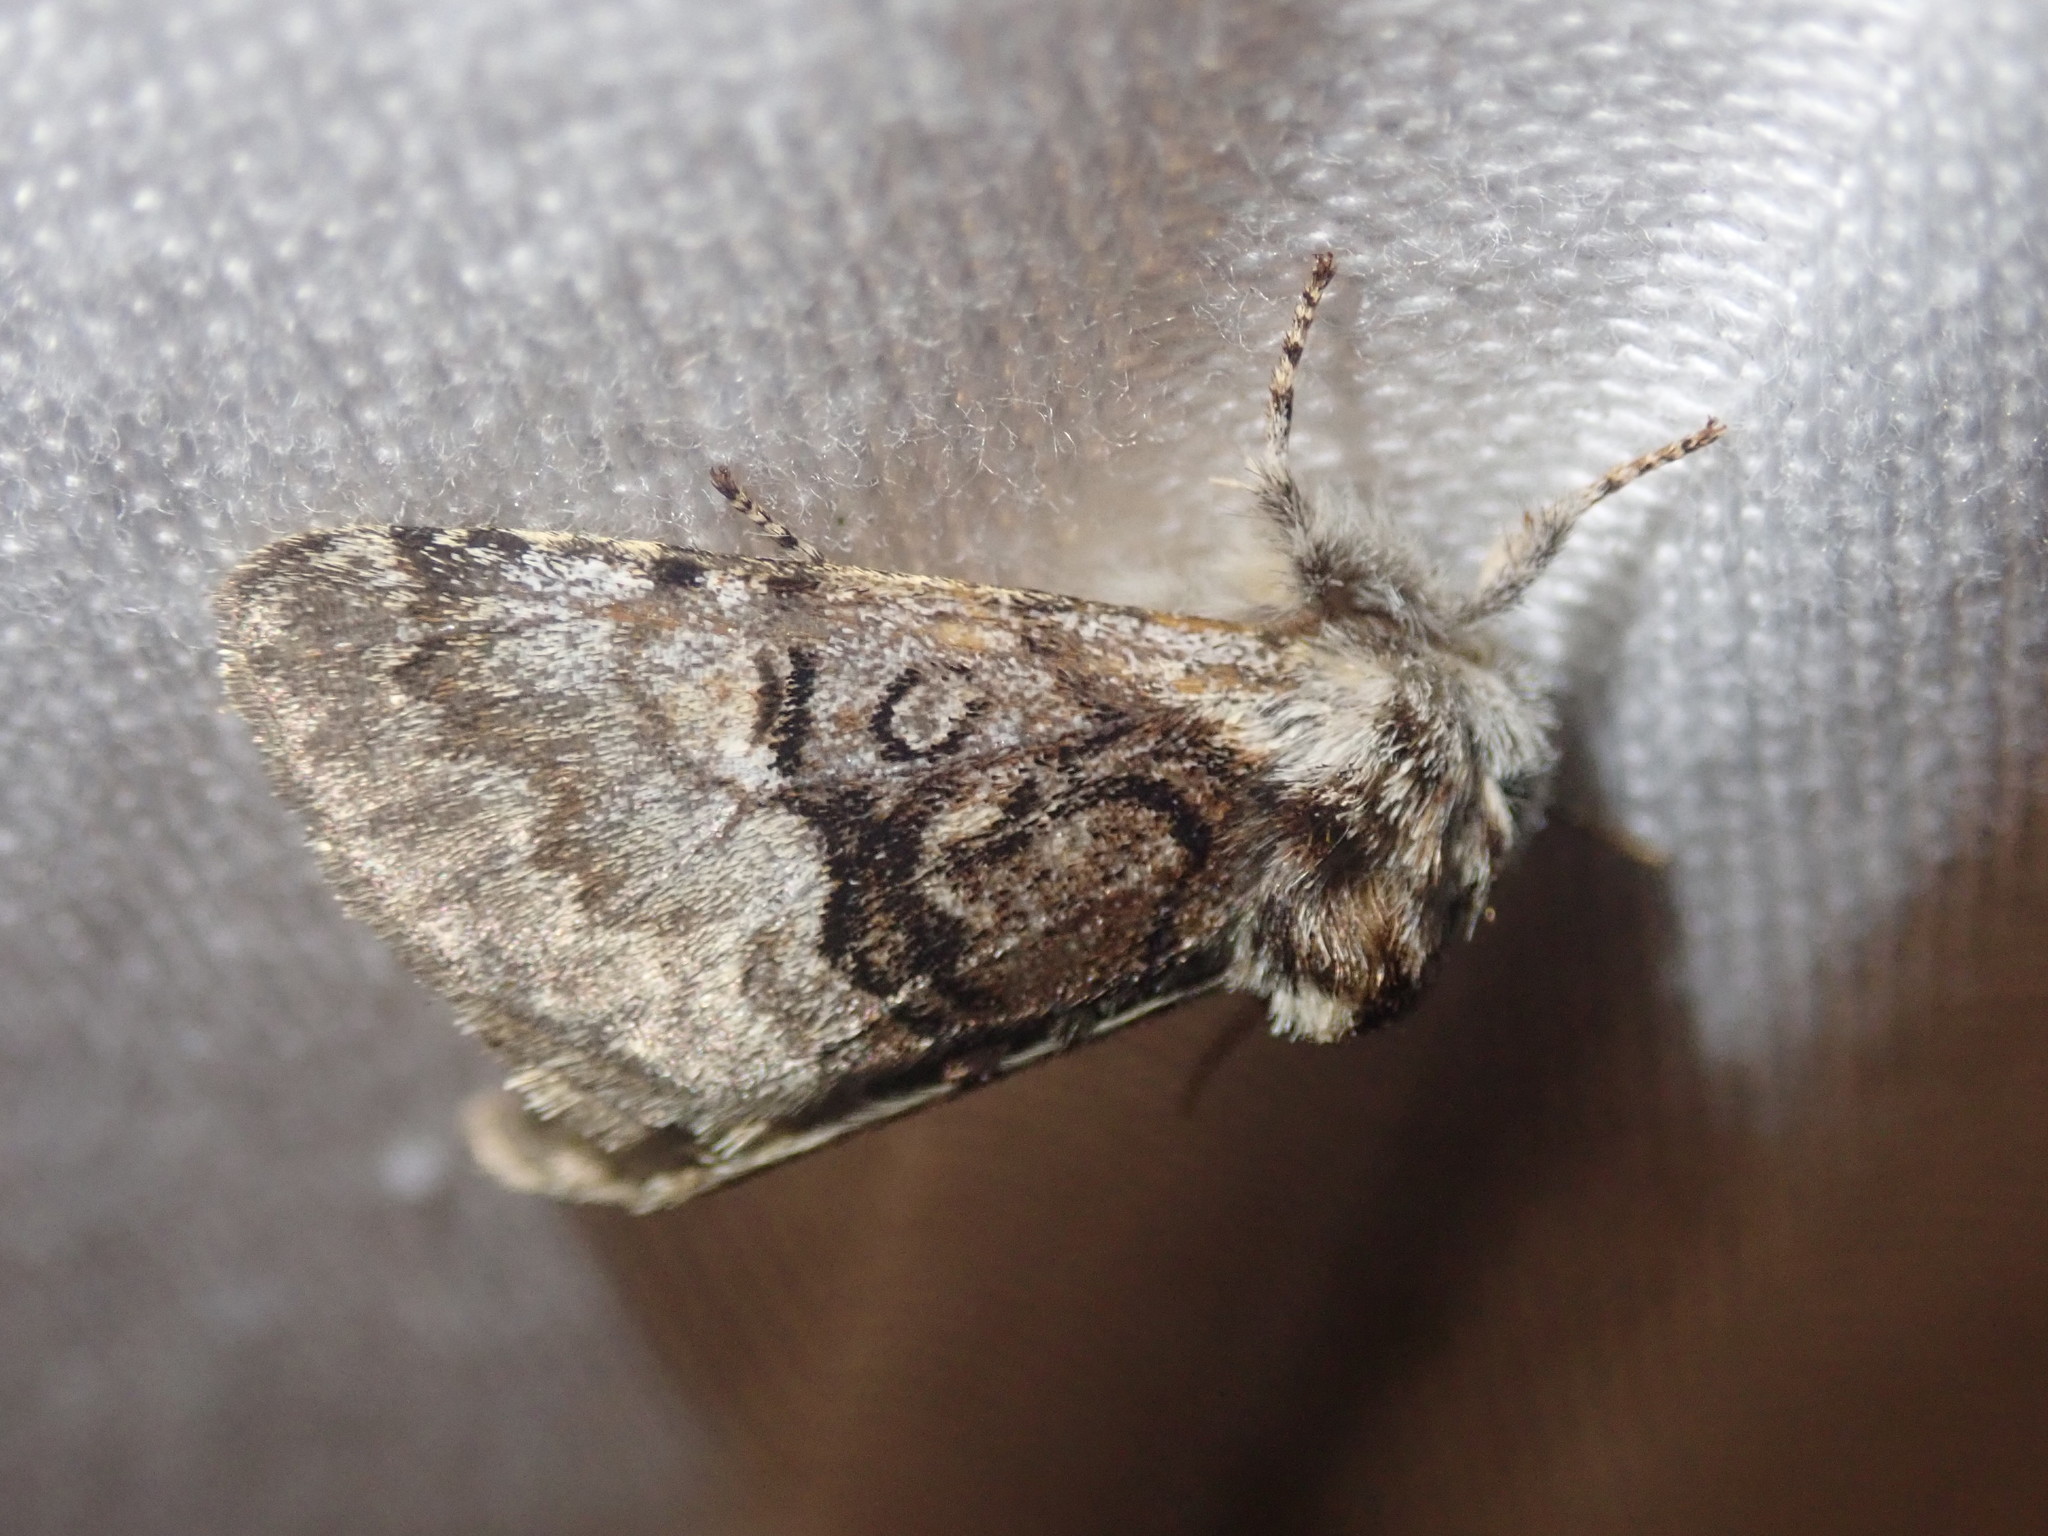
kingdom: Animalia
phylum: Arthropoda
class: Insecta
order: Lepidoptera
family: Noctuidae
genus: Colocasia
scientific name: Colocasia coryli
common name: Nut-tree tussock
